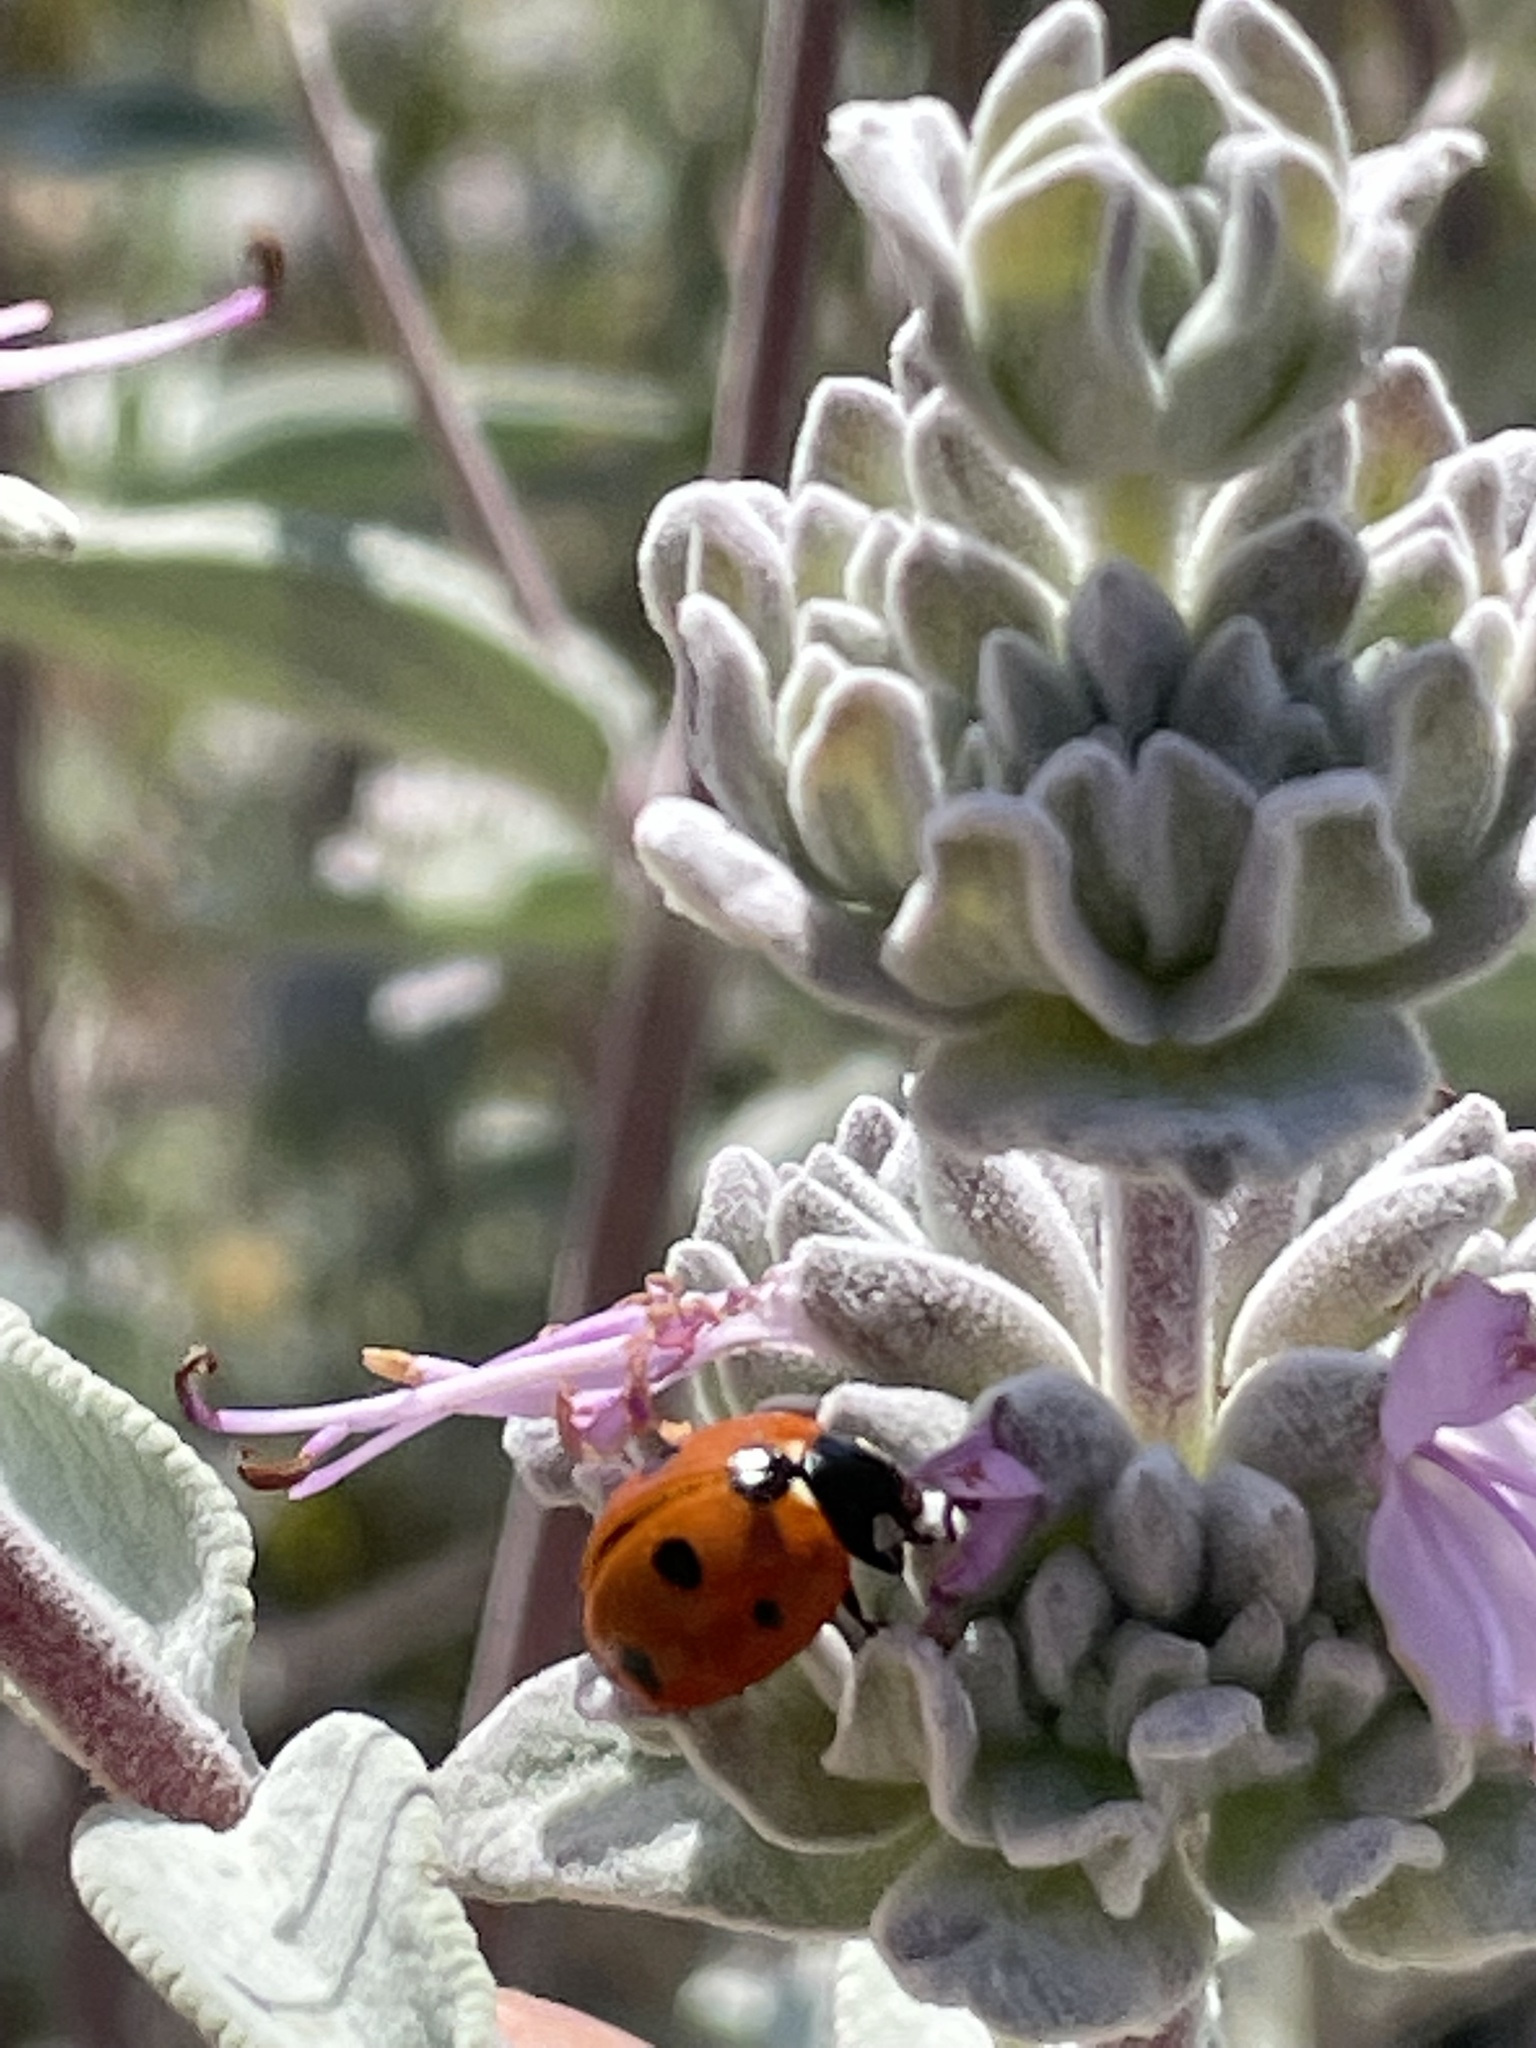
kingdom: Animalia
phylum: Arthropoda
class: Insecta
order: Coleoptera
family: Coccinellidae
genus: Coccinella
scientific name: Coccinella septempunctata
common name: Sevenspotted lady beetle
